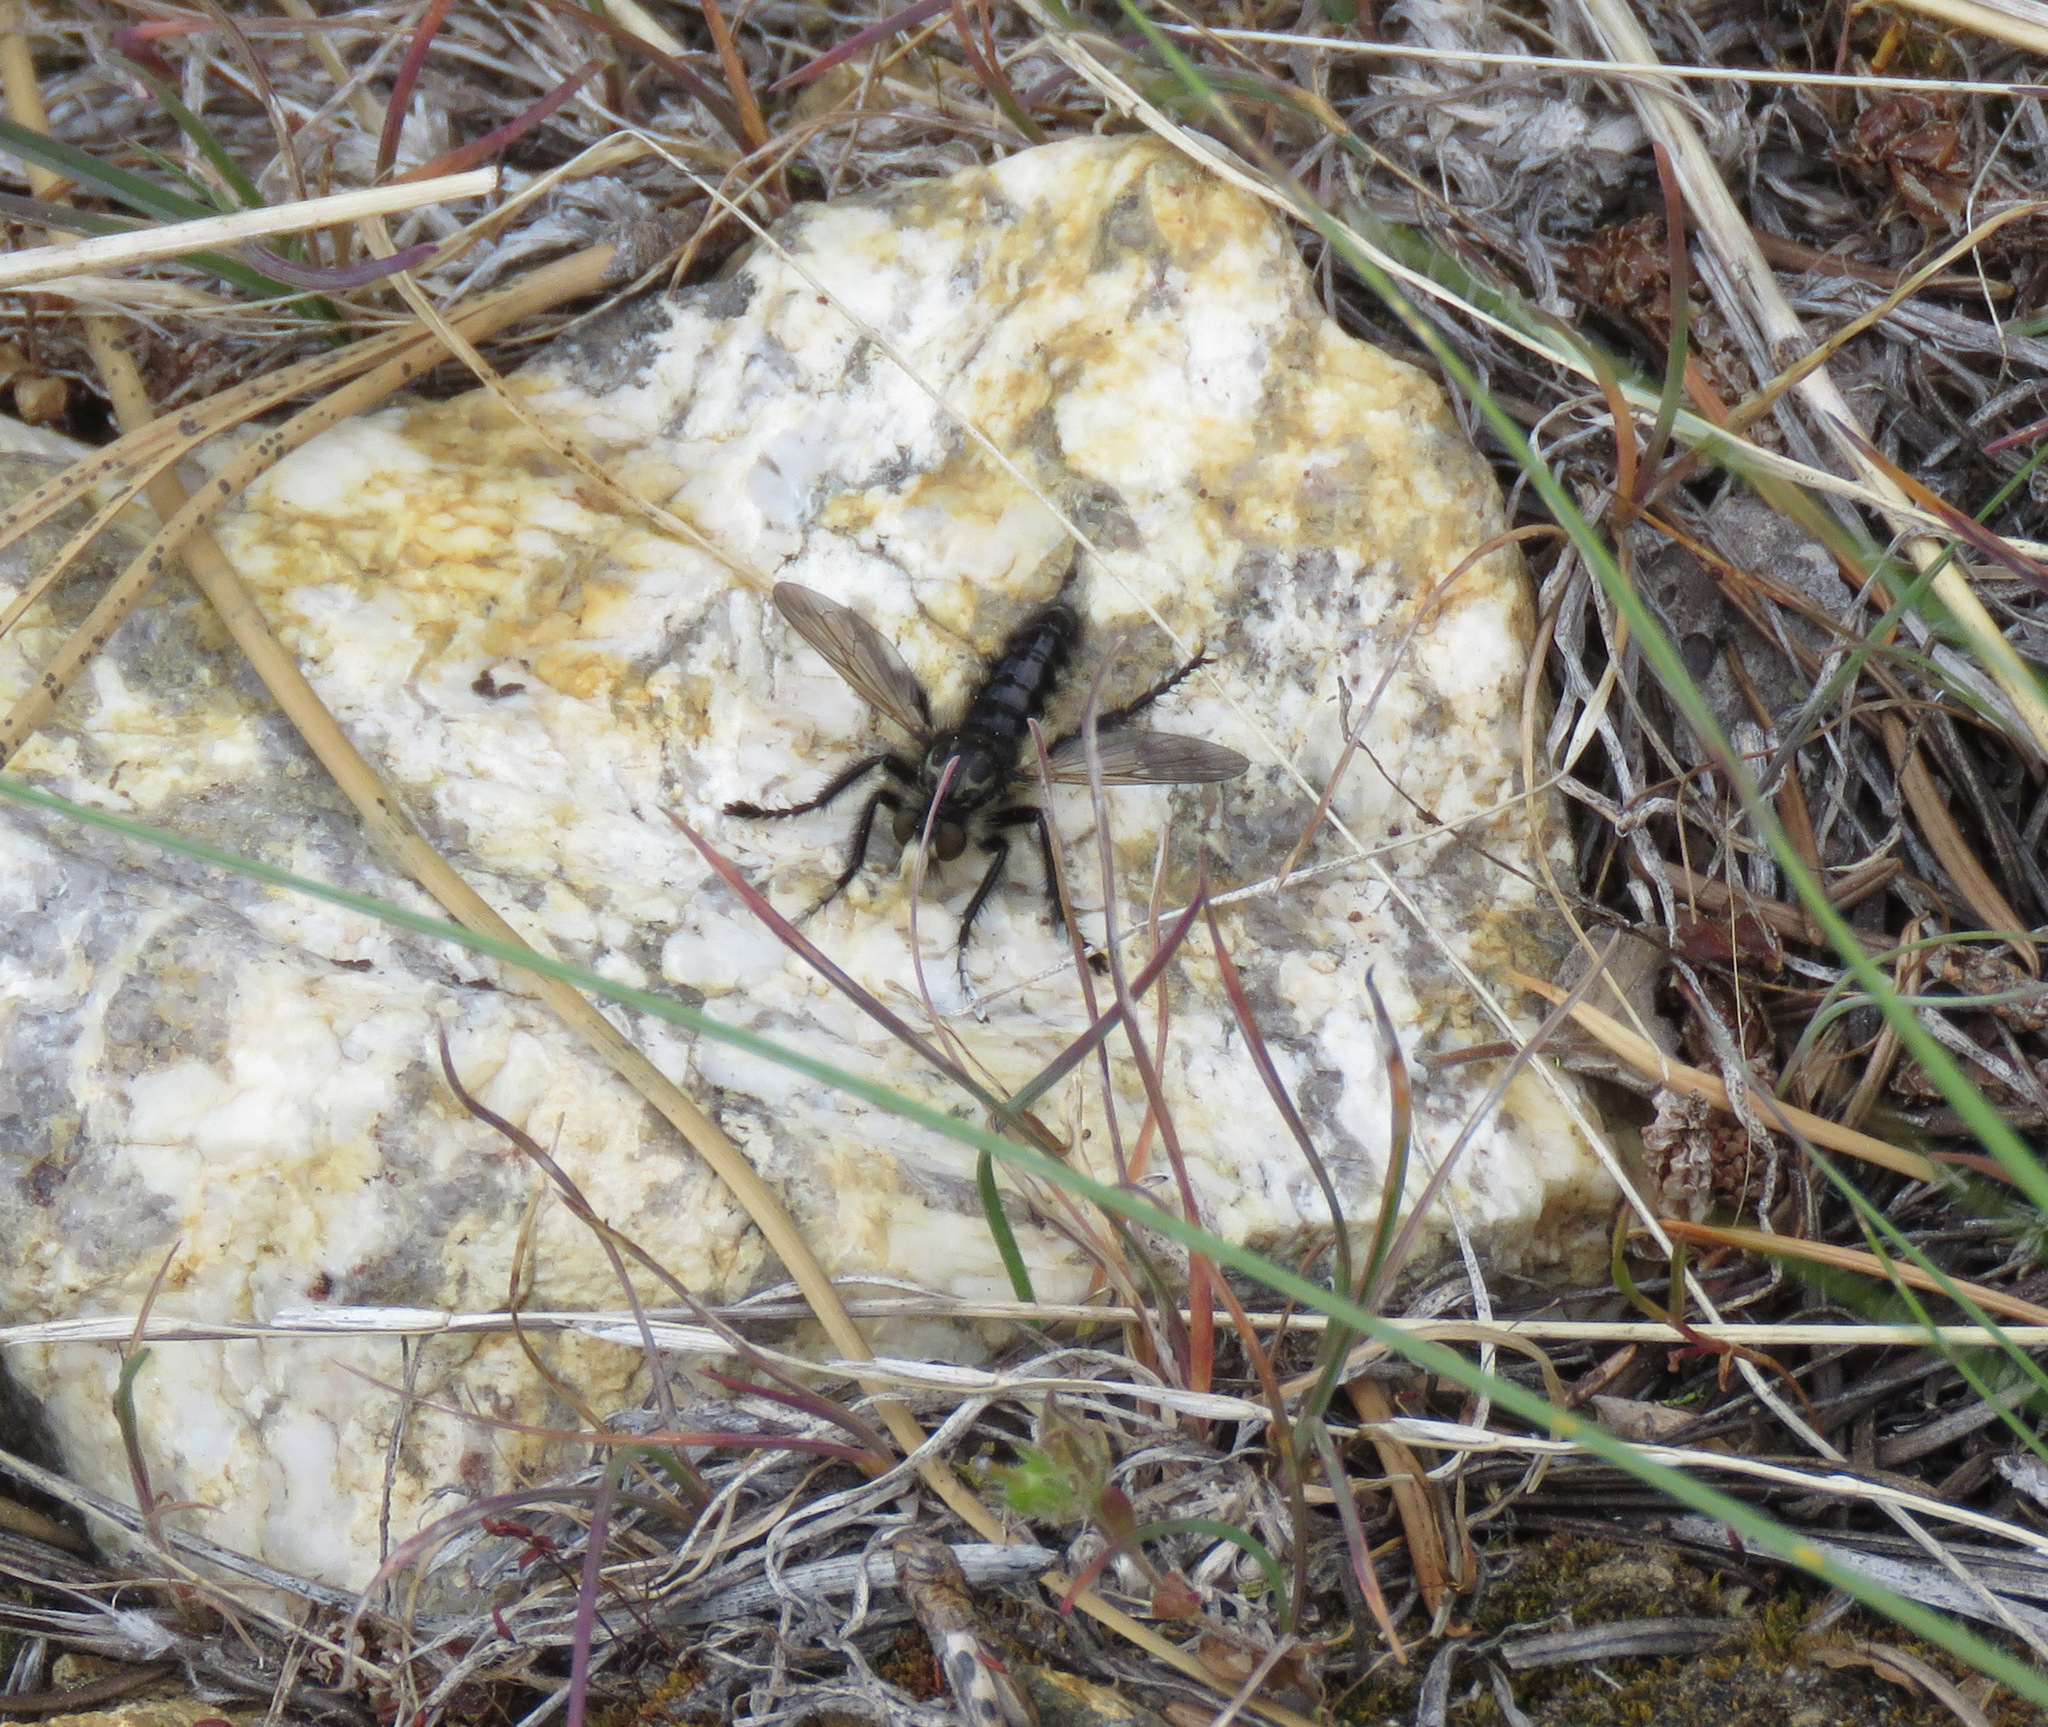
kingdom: Animalia
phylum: Arthropoda
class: Insecta
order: Diptera
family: Asilidae
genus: Cyrtopogon
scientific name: Cyrtopogon willistoni
